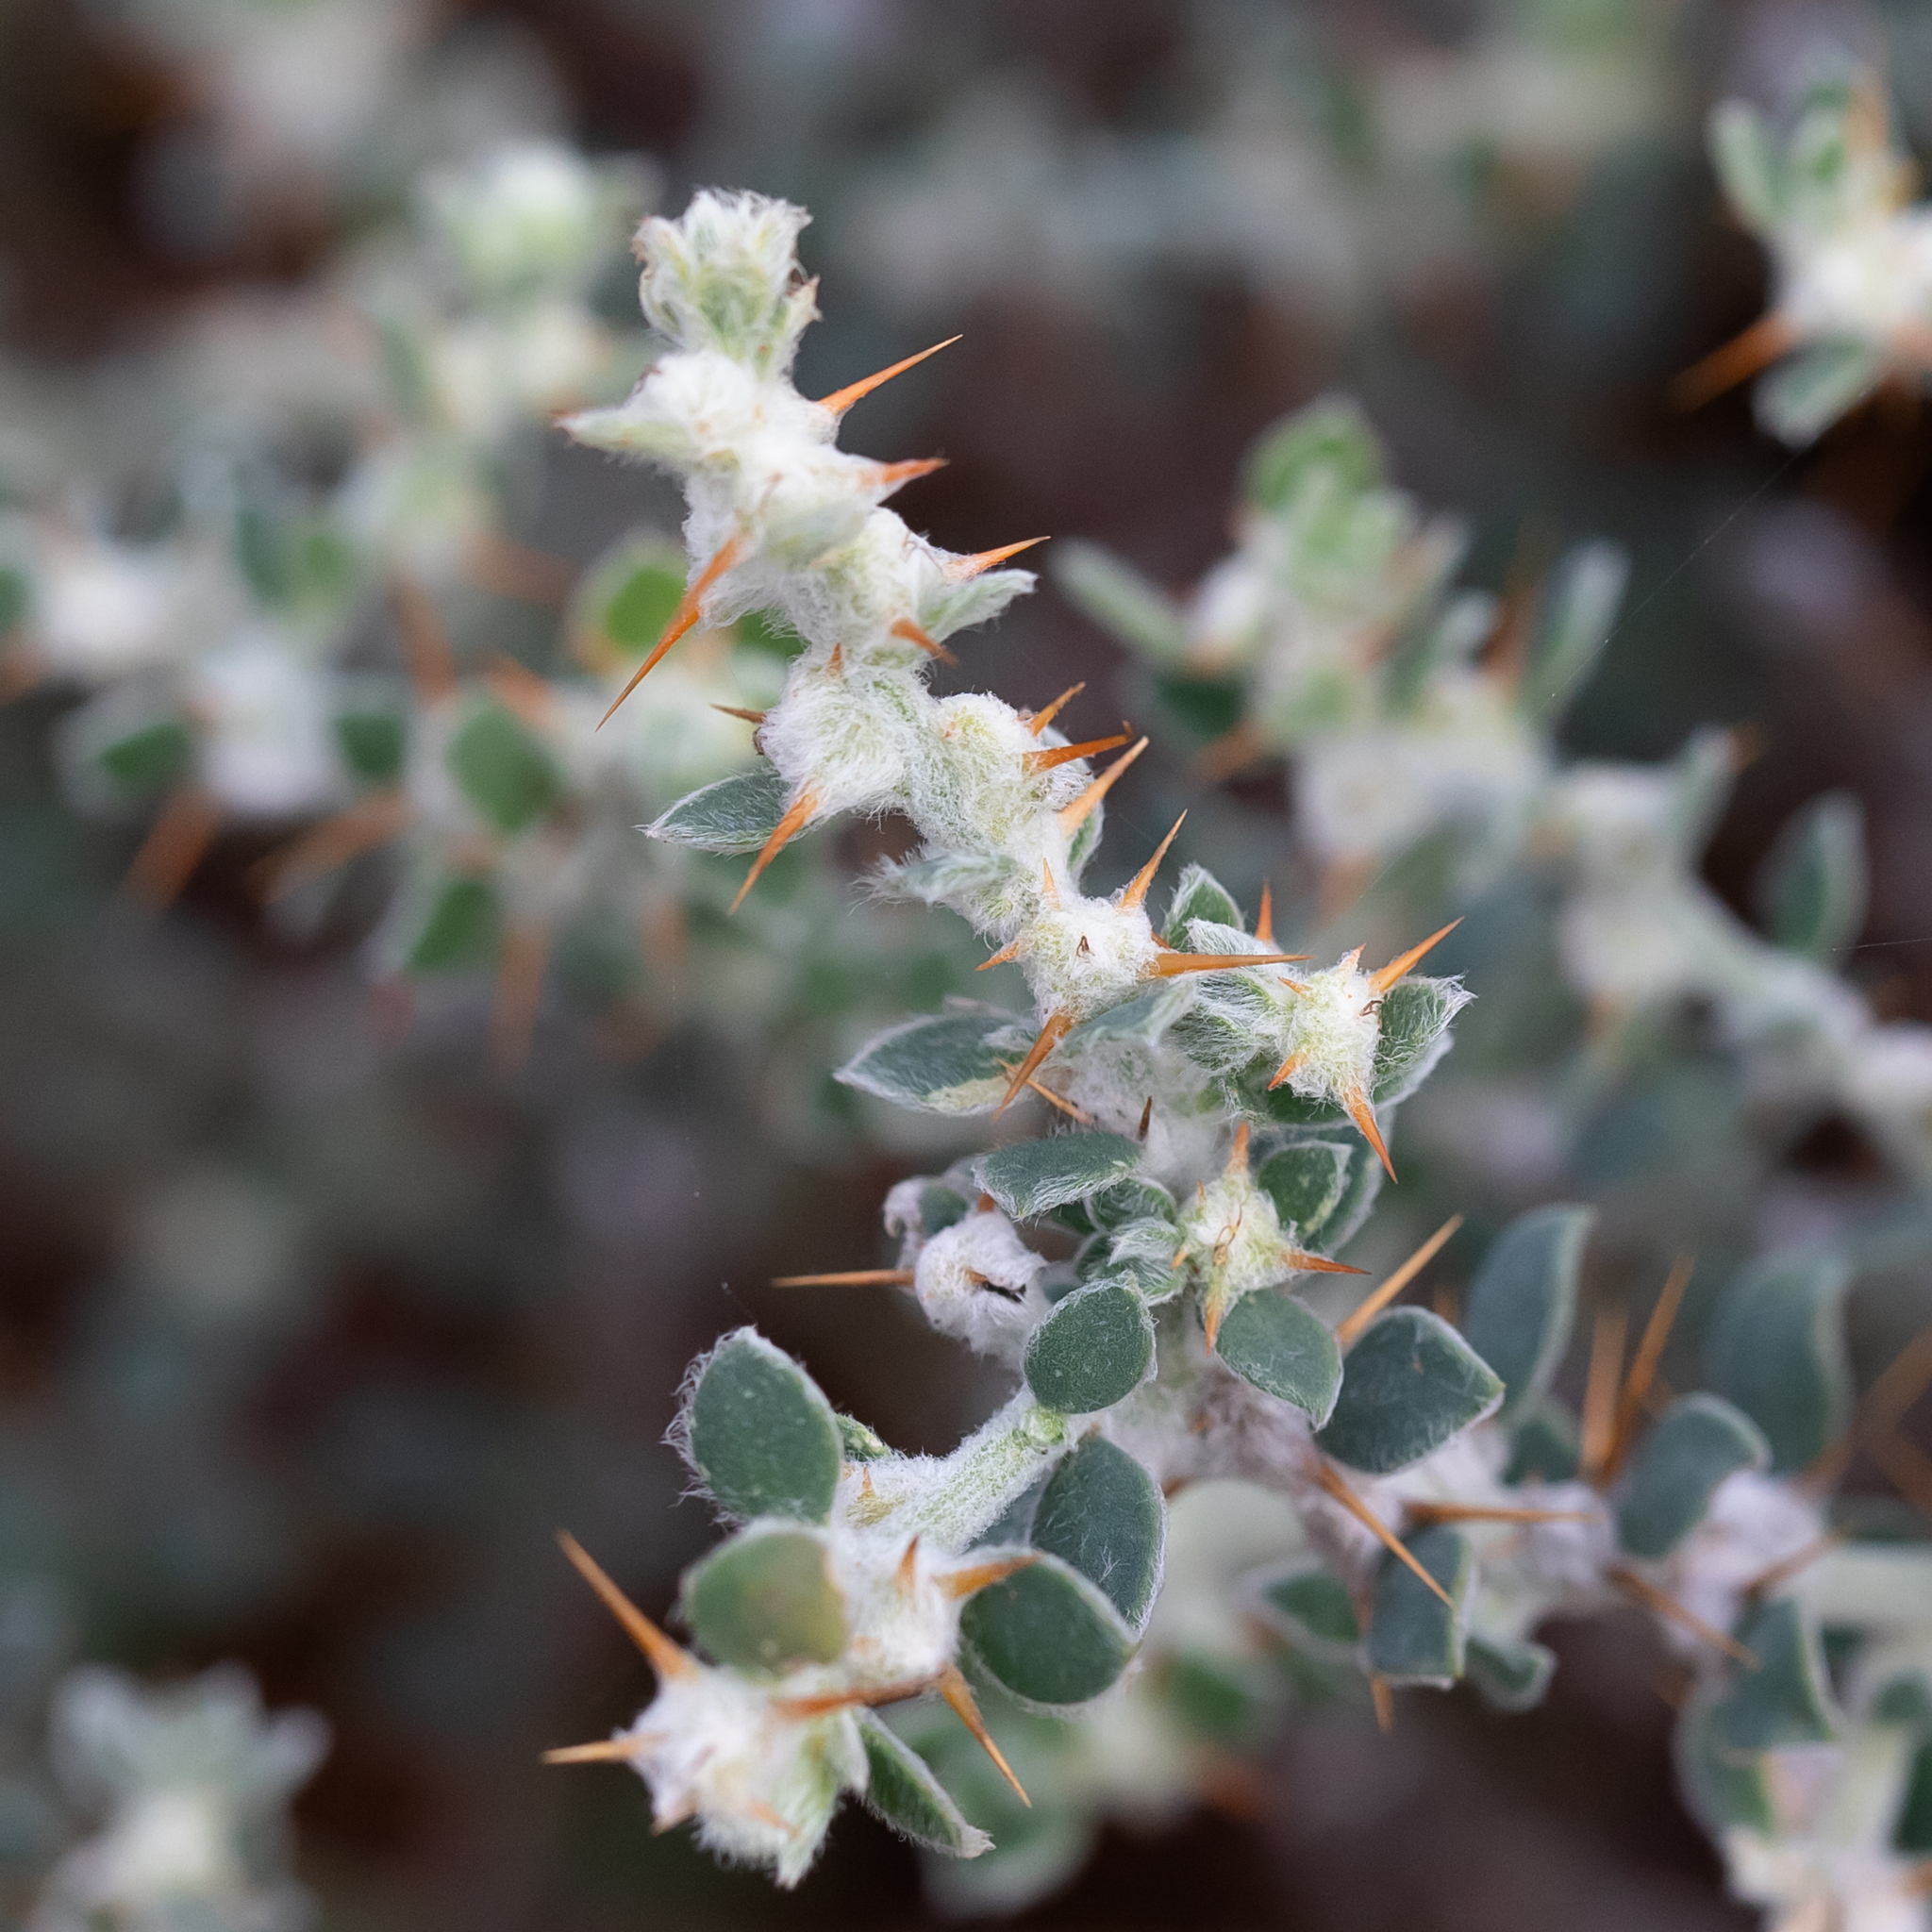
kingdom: Plantae
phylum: Tracheophyta
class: Magnoliopsida
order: Caryophyllales
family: Amaranthaceae
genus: Sclerolaena
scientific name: Sclerolaena birchii
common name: Galvanized bur
